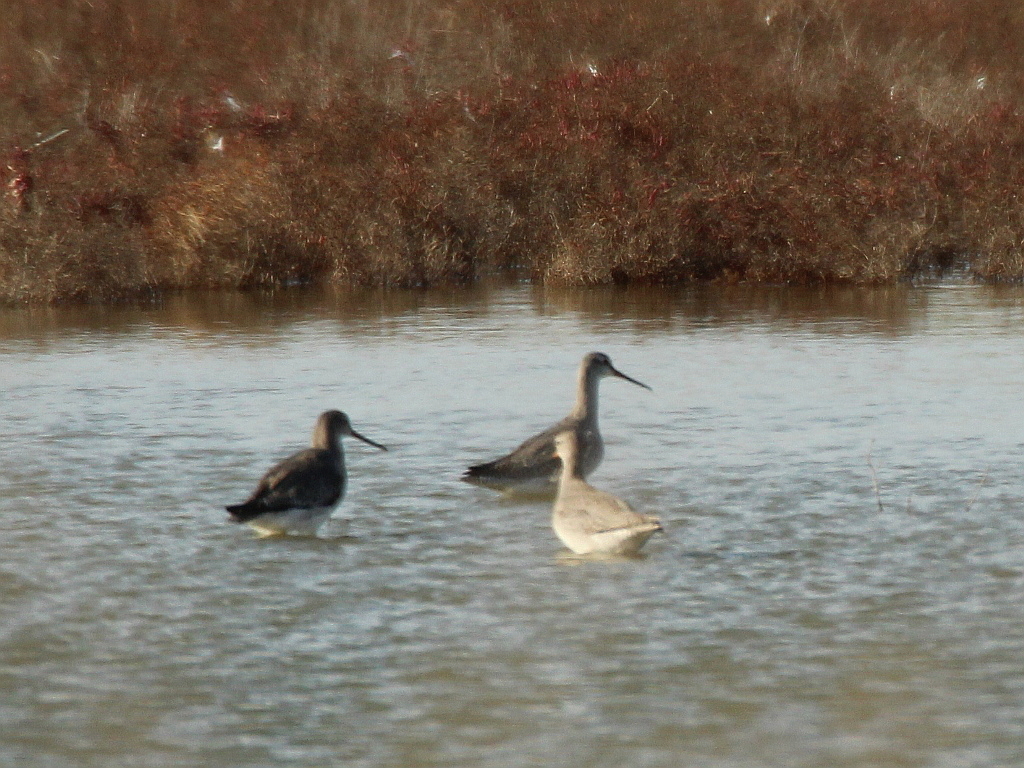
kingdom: Animalia
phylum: Chordata
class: Aves
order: Charadriiformes
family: Scolopacidae
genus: Tringa
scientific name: Tringa erythropus
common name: Spotted redshank
